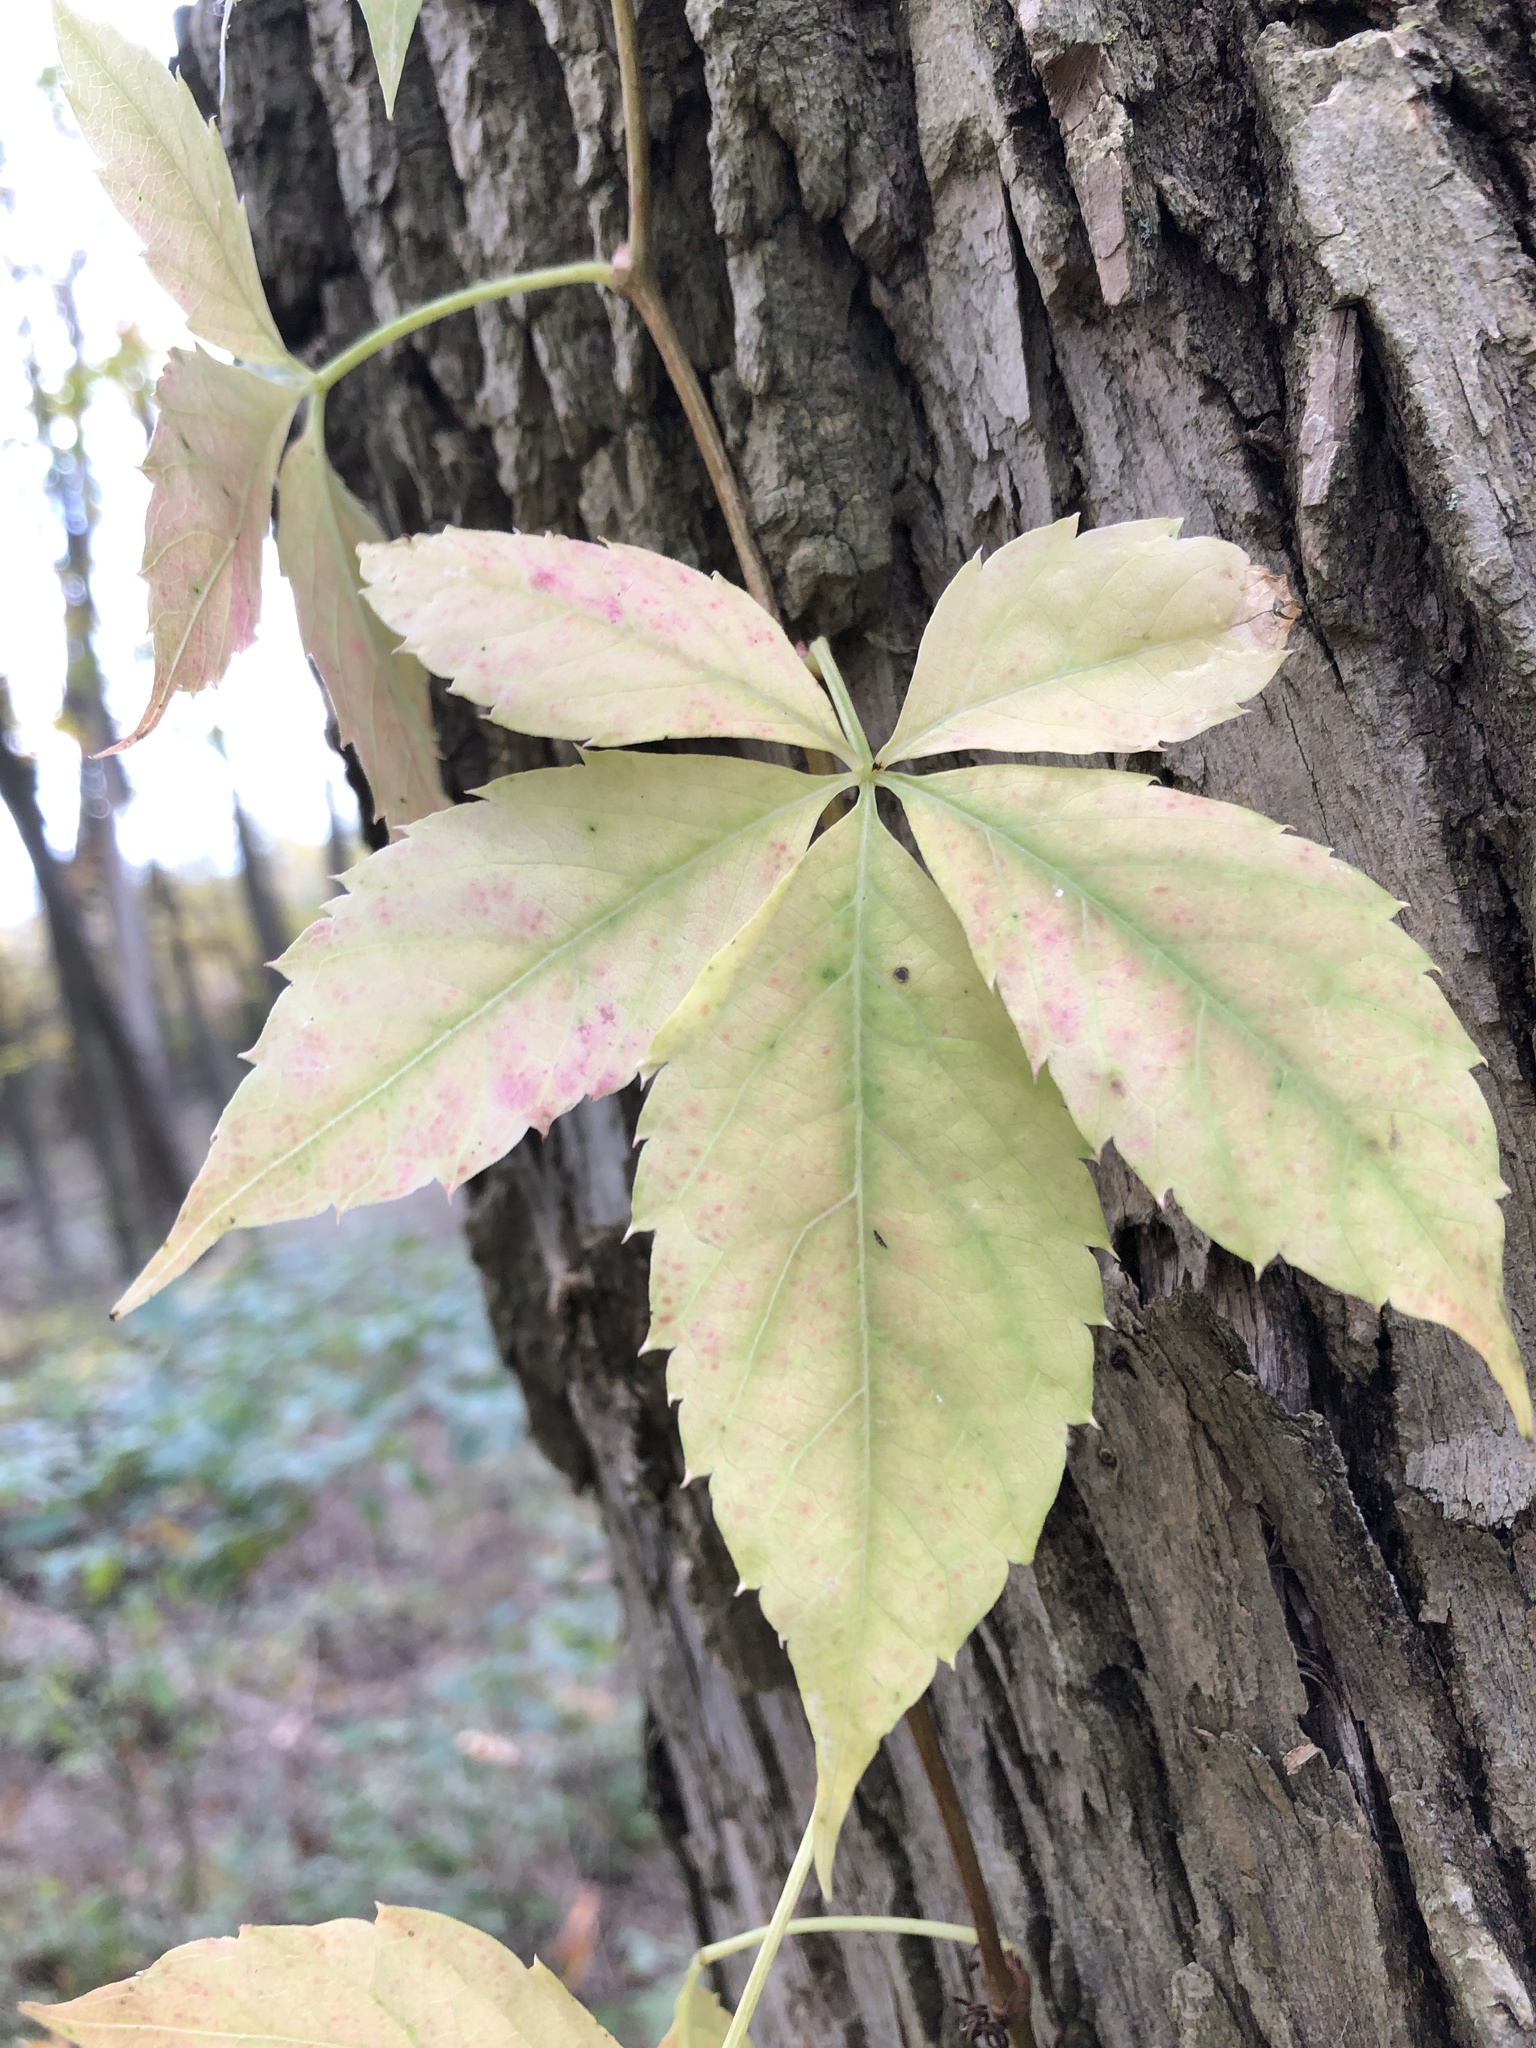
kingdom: Plantae
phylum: Tracheophyta
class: Magnoliopsida
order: Vitales
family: Vitaceae
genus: Parthenocissus
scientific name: Parthenocissus quinquefolia
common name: Virginia-creeper
